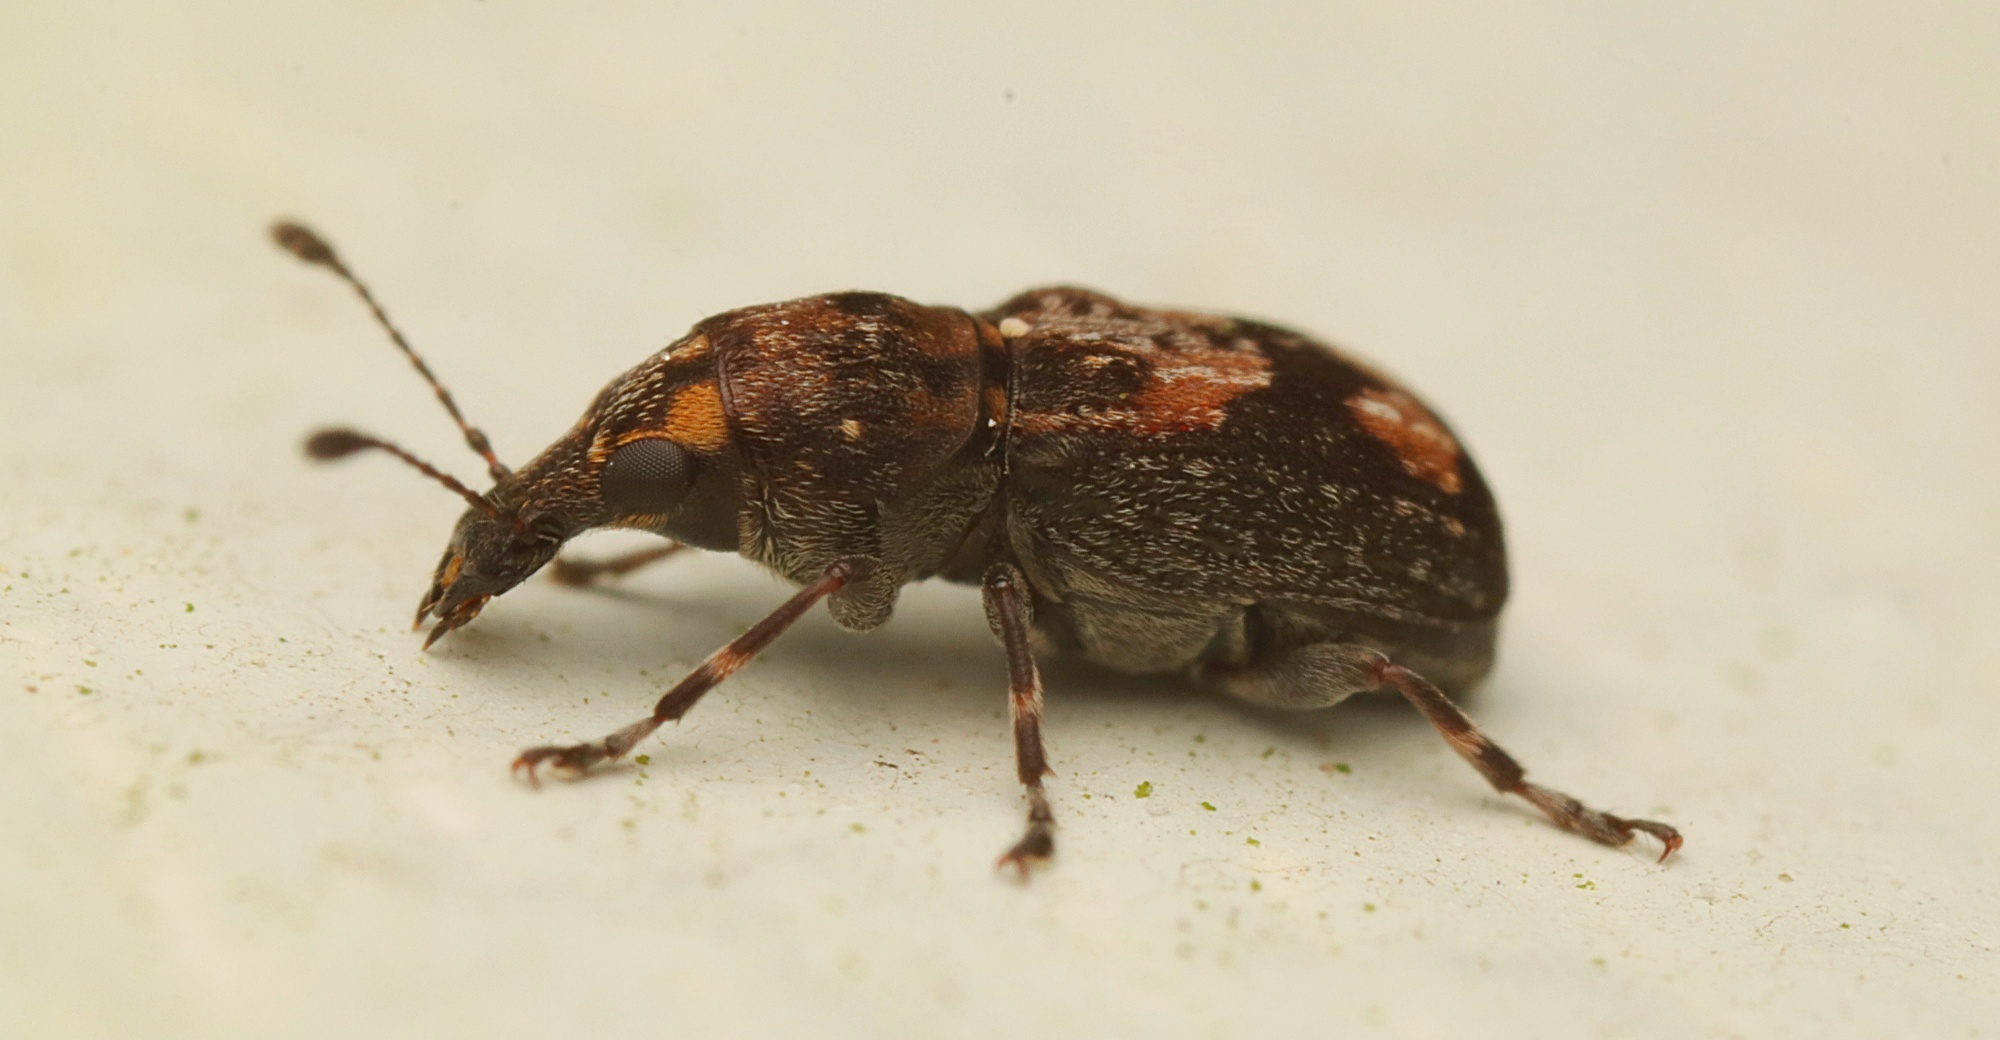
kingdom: Animalia
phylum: Arthropoda
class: Insecta
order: Coleoptera
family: Anthribidae
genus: Sharpius
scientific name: Sharpius
